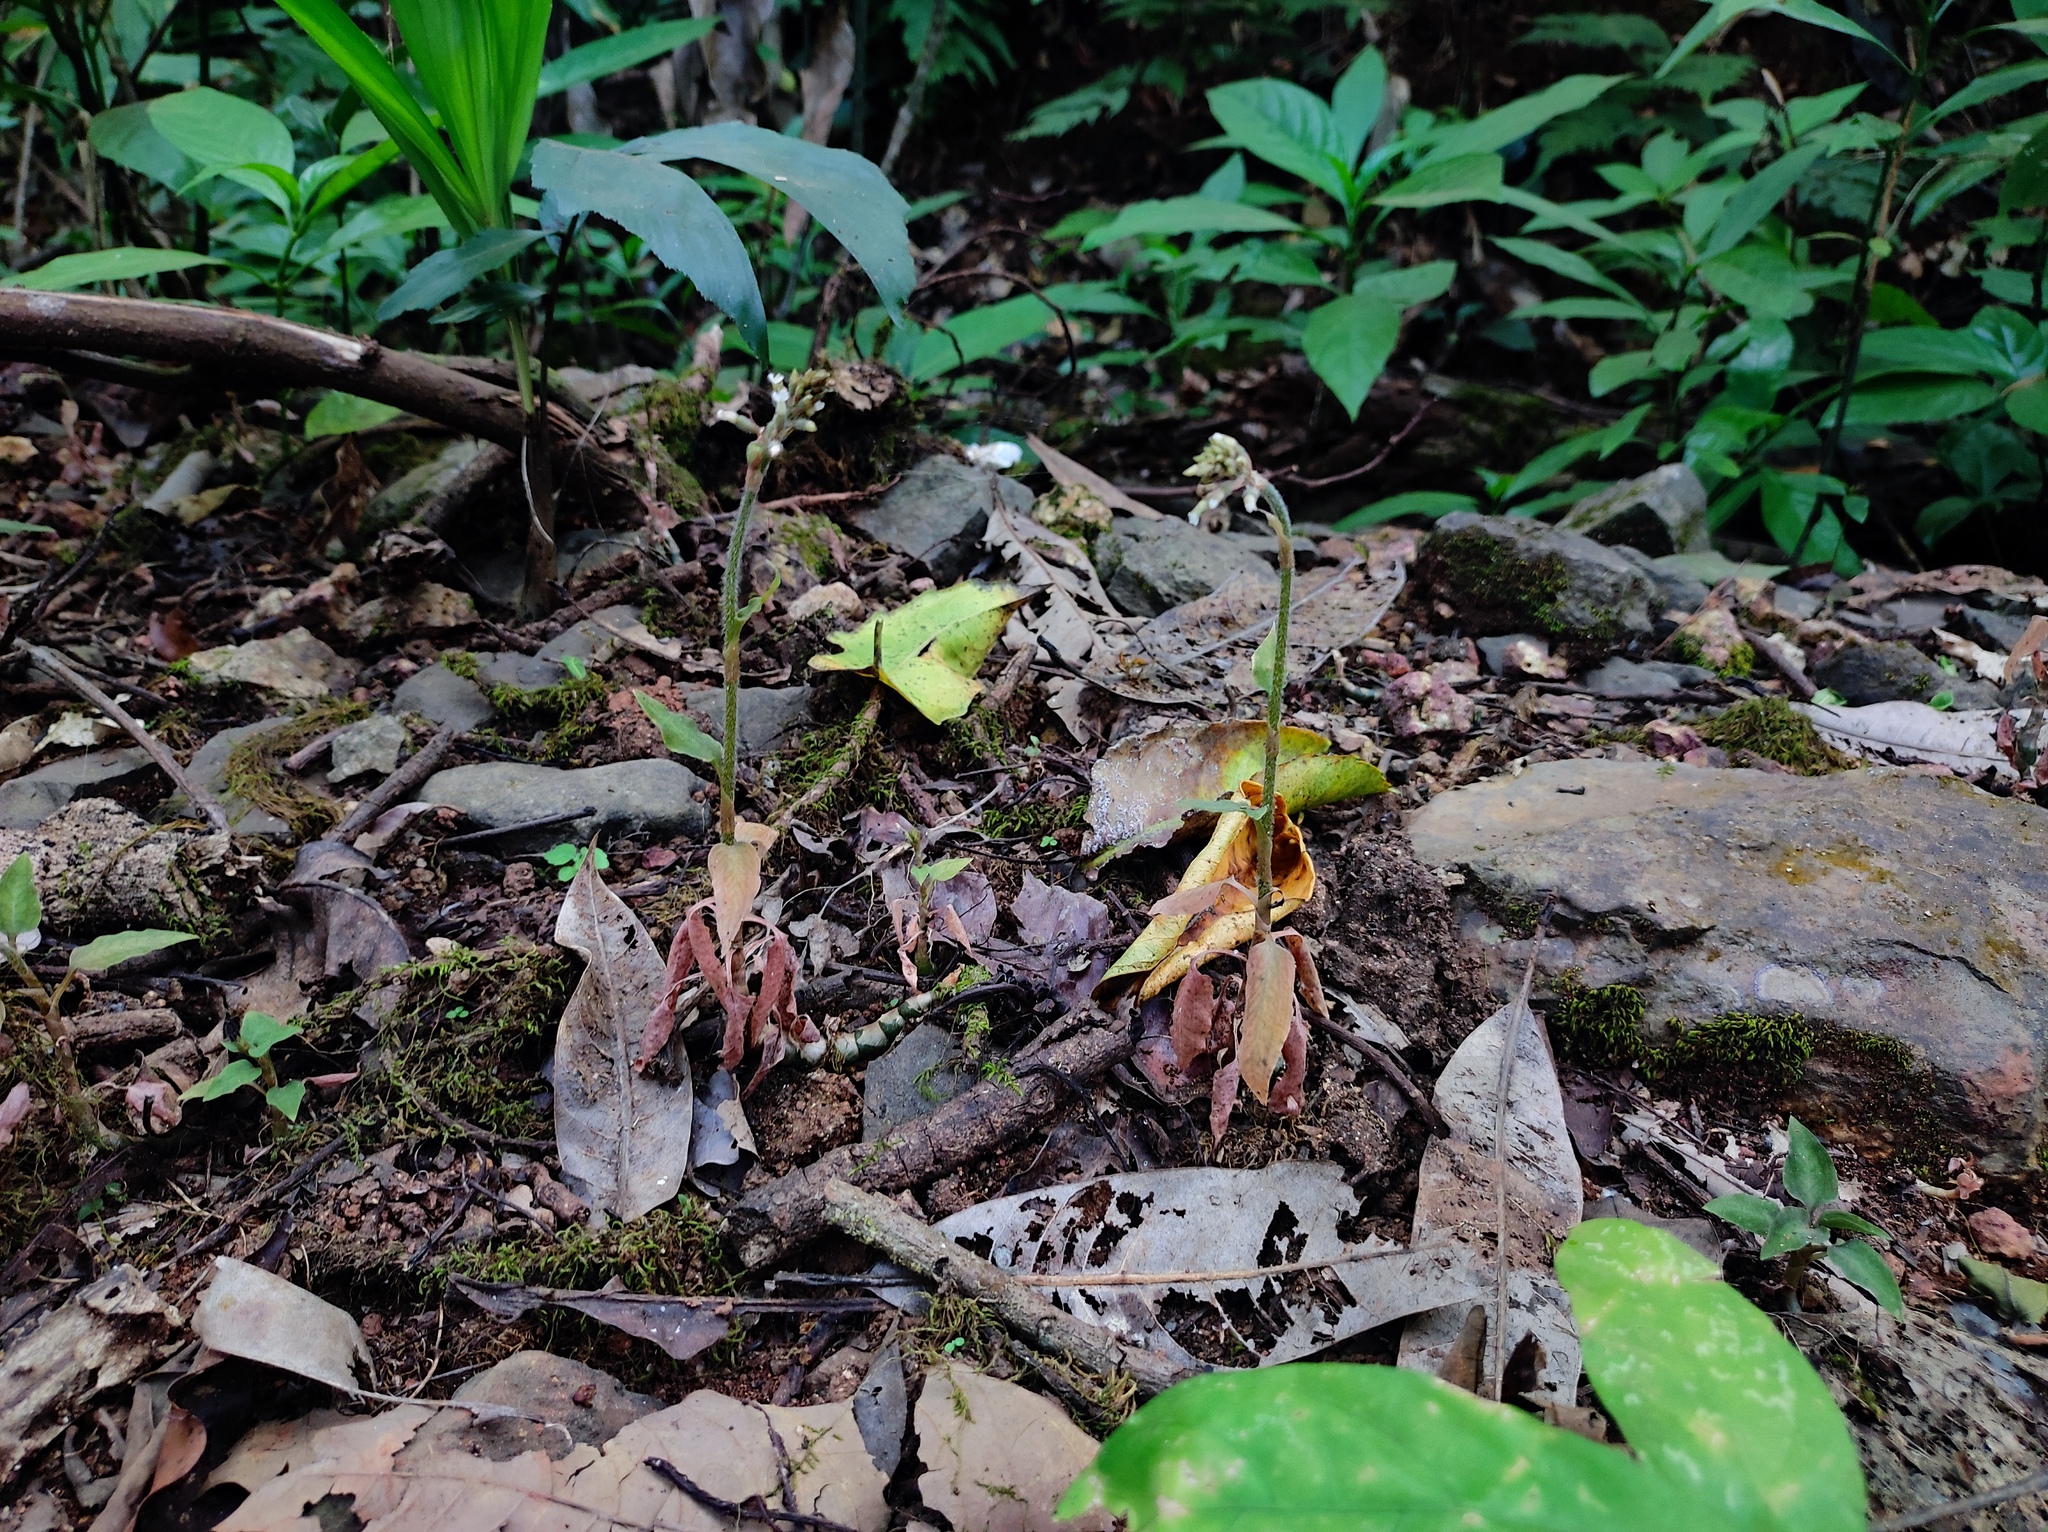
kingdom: Plantae
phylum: Tracheophyta
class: Liliopsida
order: Asparagales
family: Orchidaceae
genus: Cheirostylis
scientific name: Cheirostylis parvifolia
